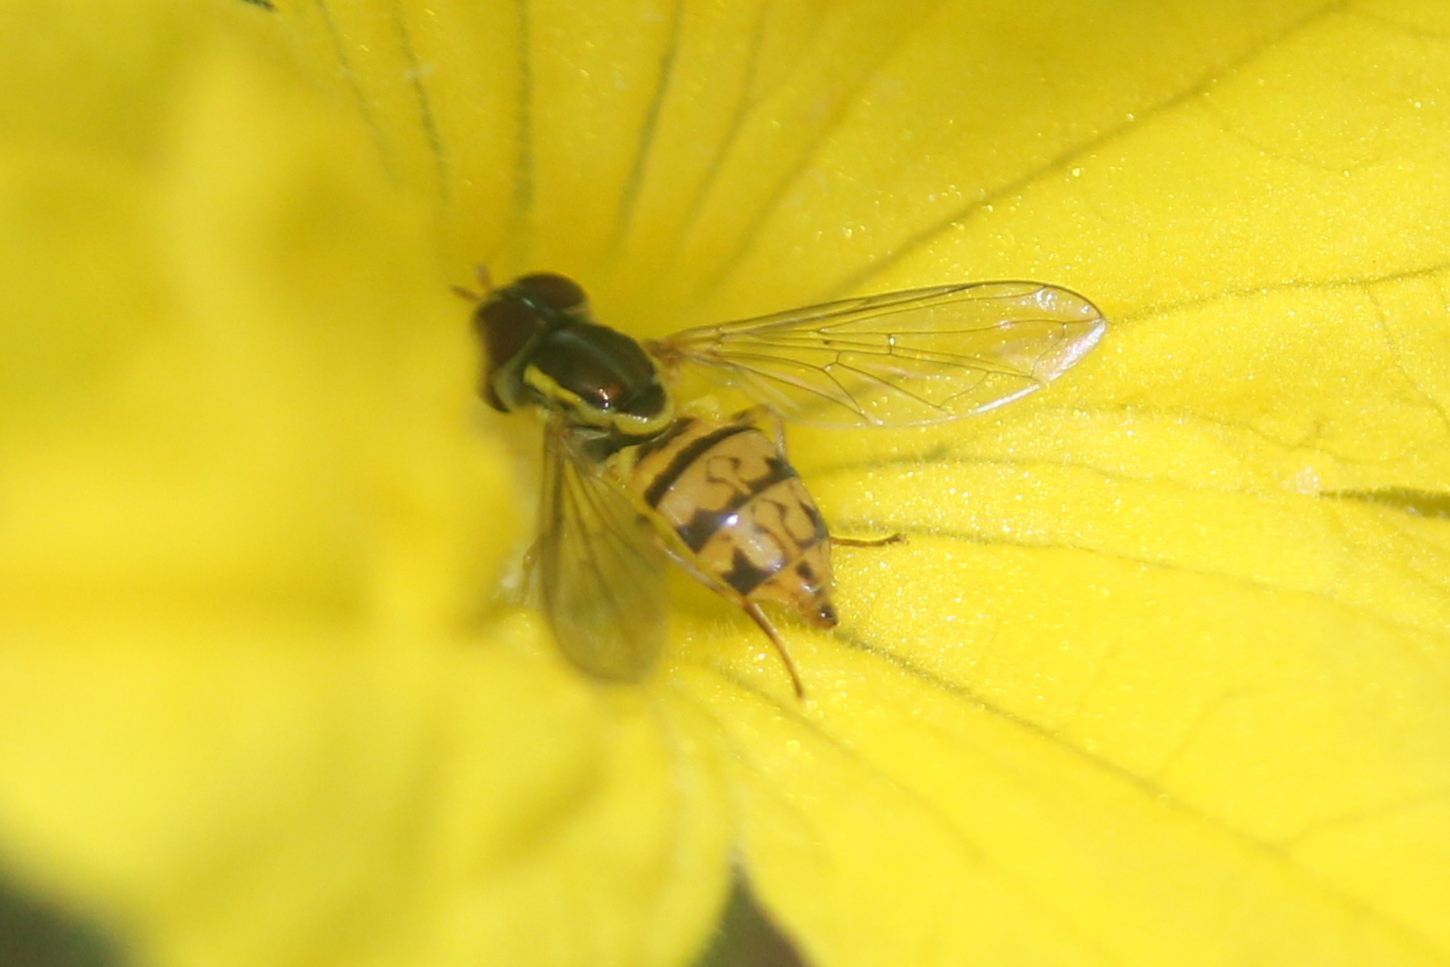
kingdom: Animalia
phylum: Arthropoda
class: Insecta
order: Diptera
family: Syrphidae
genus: Toxomerus
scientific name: Toxomerus geminatus
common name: Eastern calligrapher
